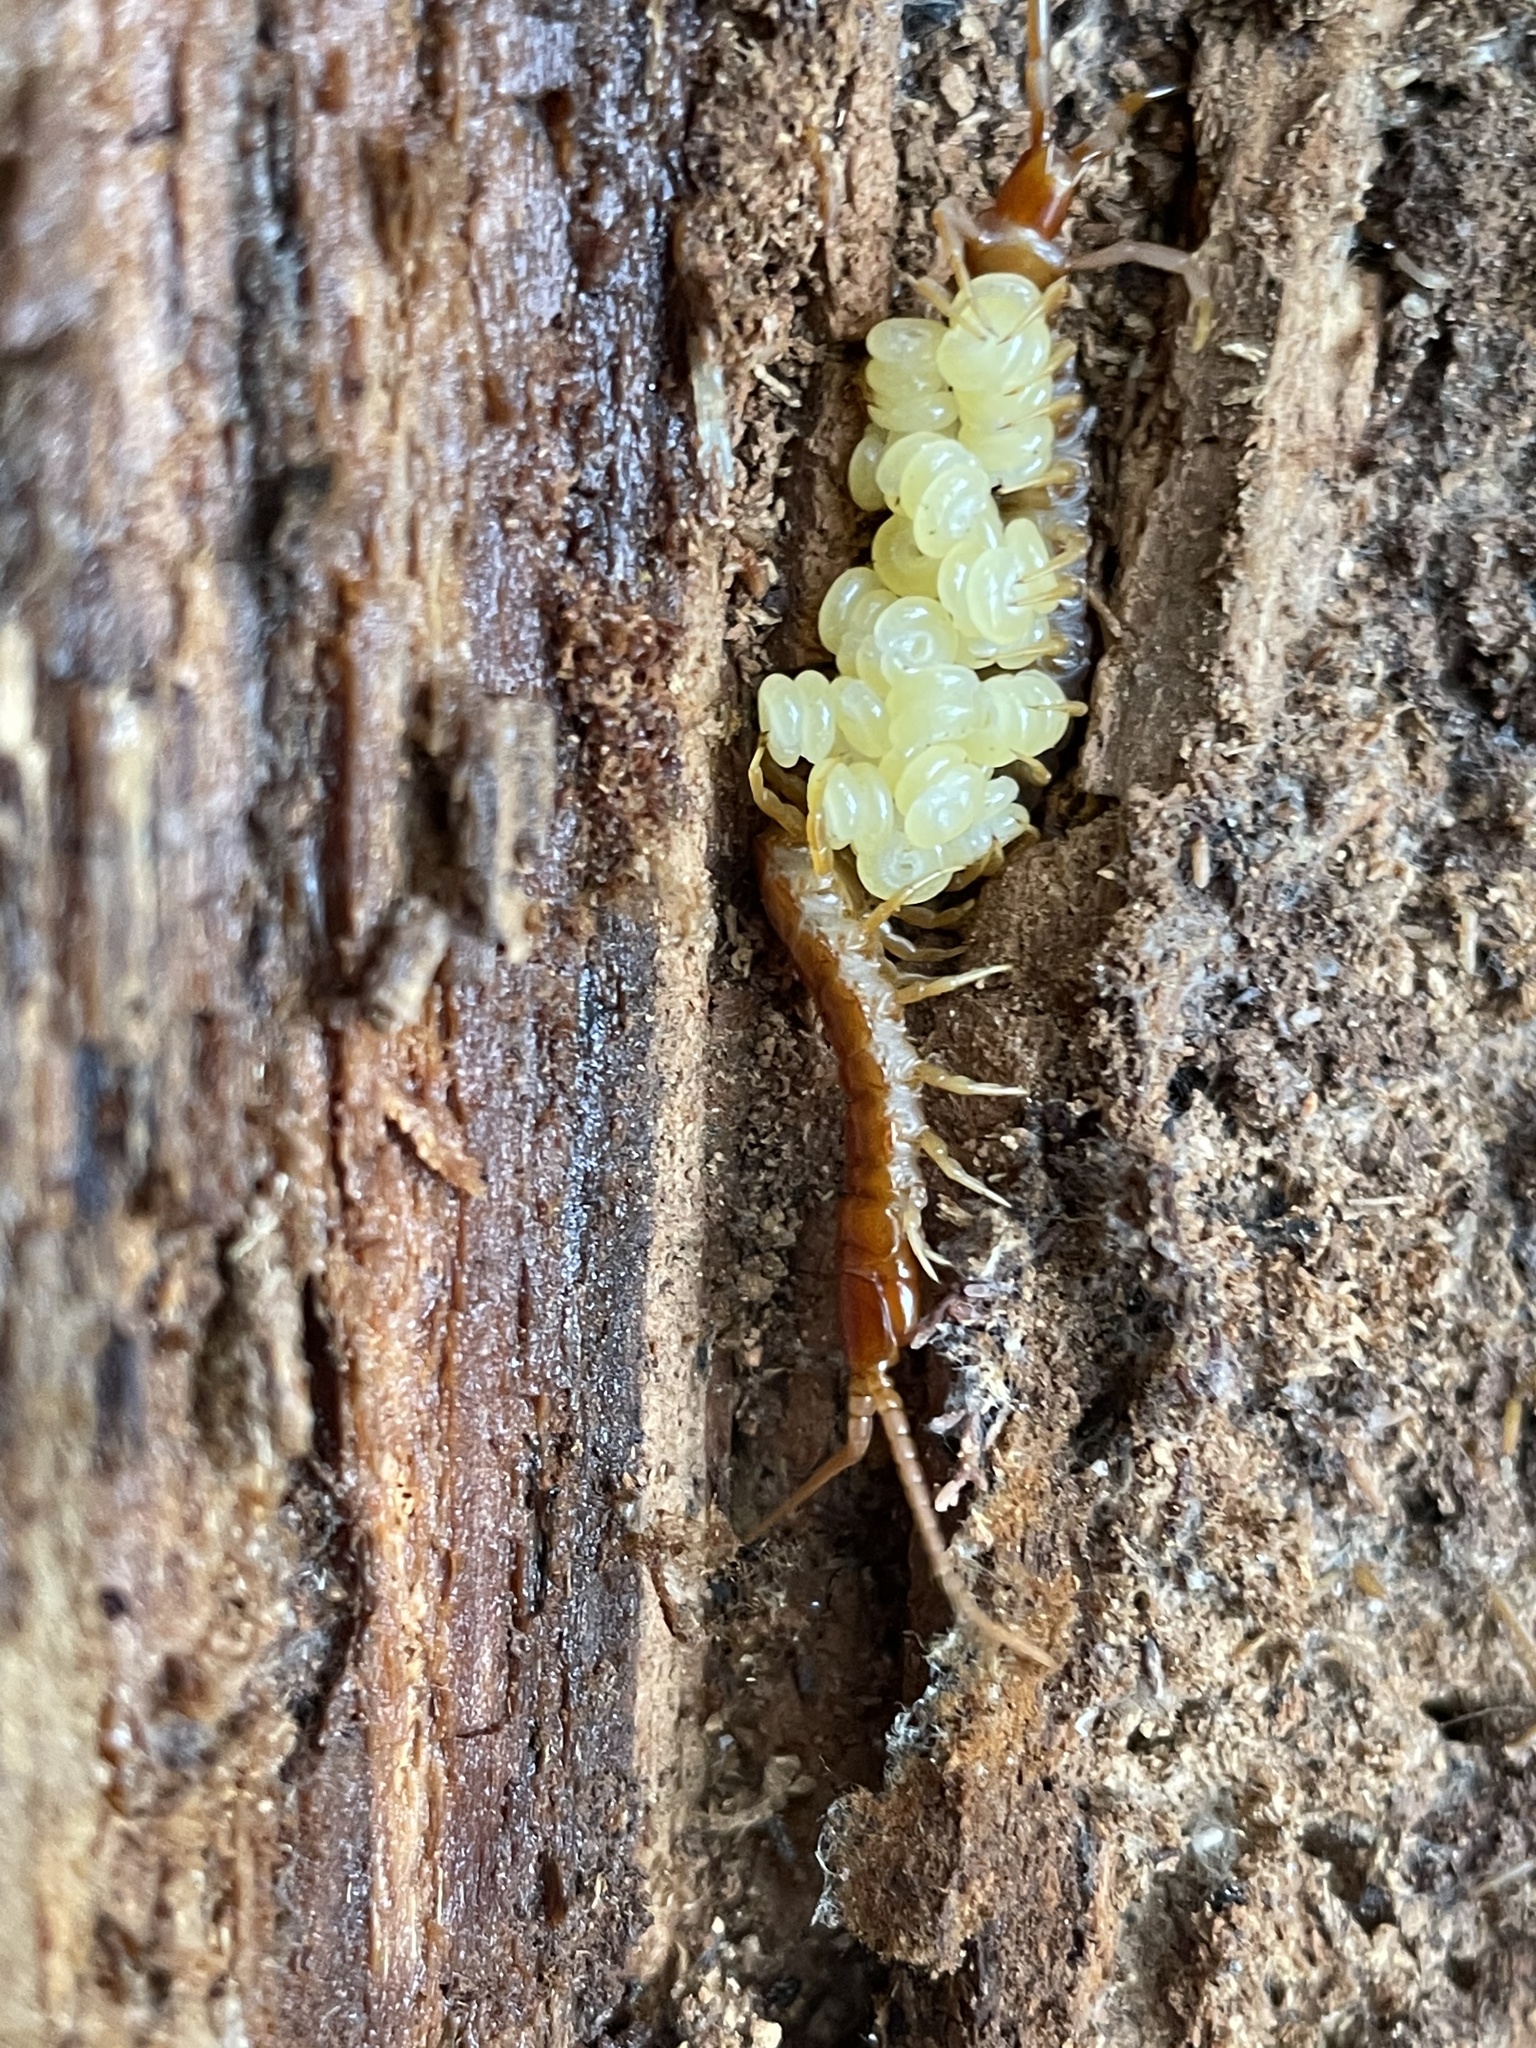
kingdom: Animalia
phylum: Arthropoda
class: Chilopoda
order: Scolopendromorpha
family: Scolopocryptopidae
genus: Scolopocryptops
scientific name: Scolopocryptops sexspinosus
